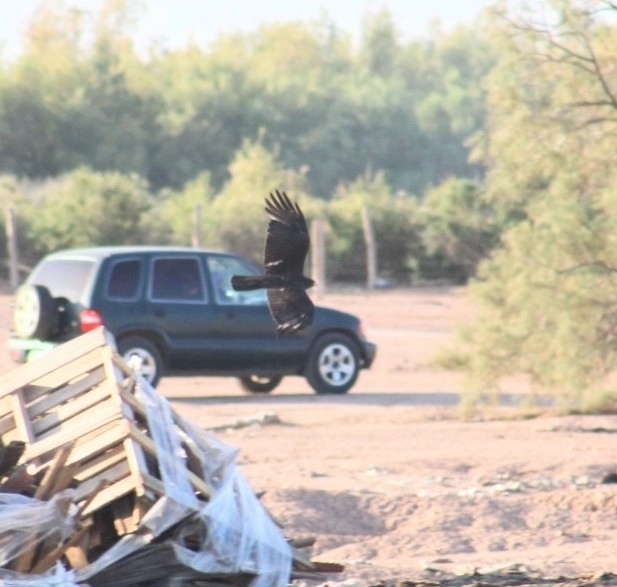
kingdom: Animalia
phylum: Chordata
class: Aves
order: Accipitriformes
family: Accipitridae
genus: Buteo
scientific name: Buteo albonotatus
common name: Zone-tailed hawk
